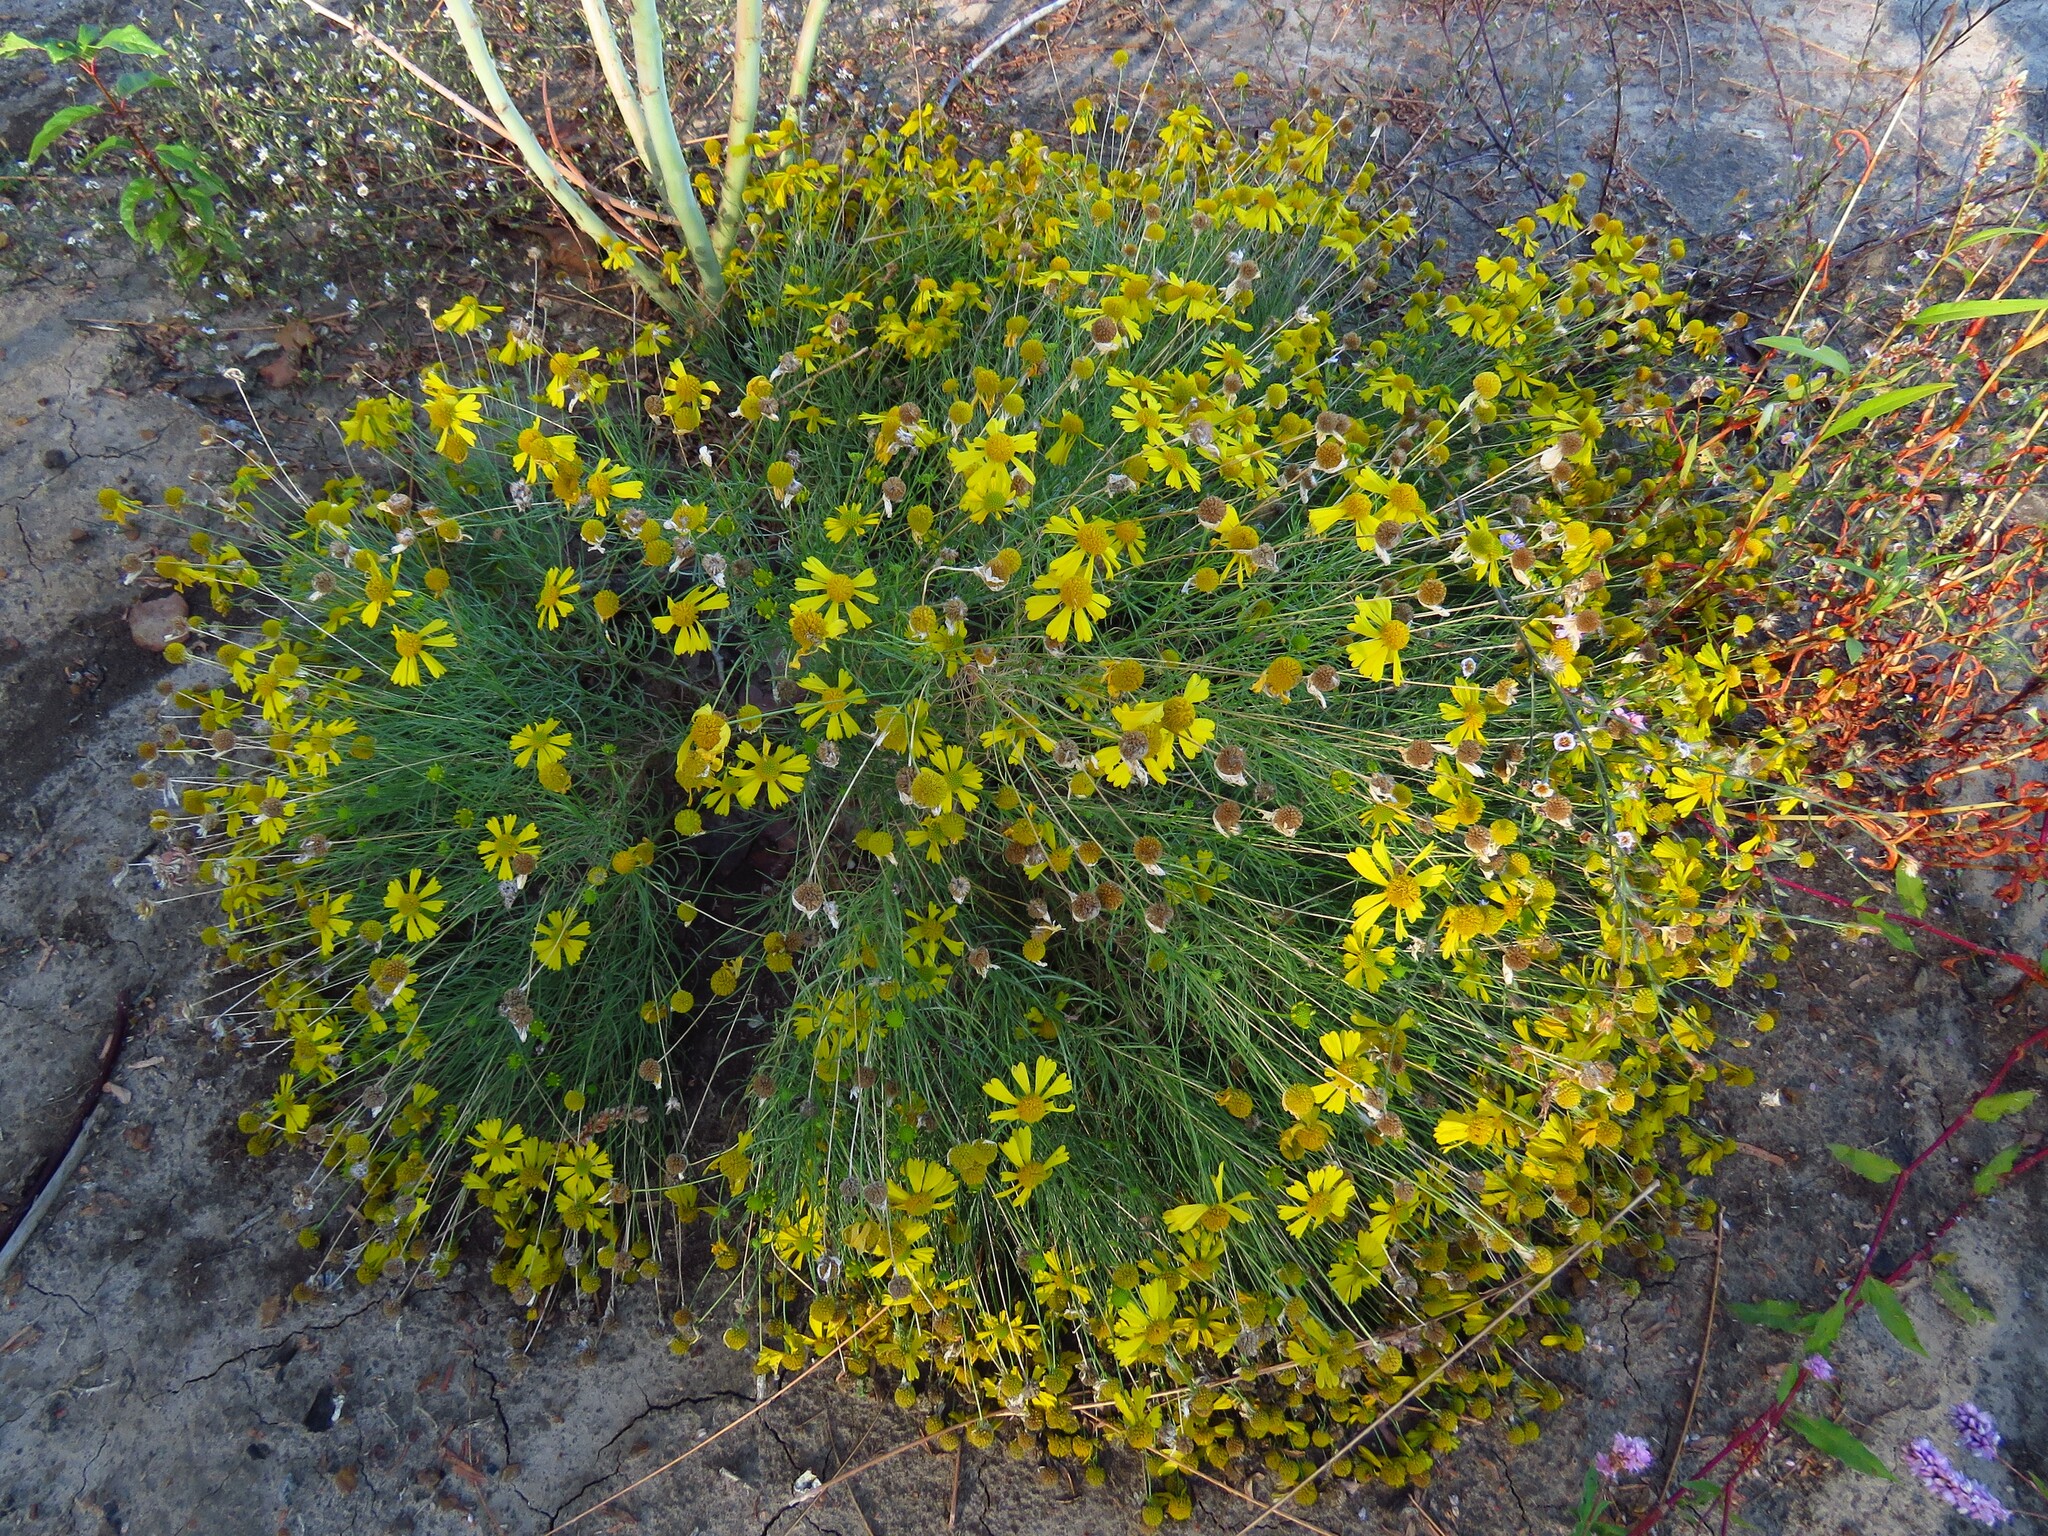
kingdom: Plantae
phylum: Tracheophyta
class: Magnoliopsida
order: Asterales
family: Asteraceae
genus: Helenium
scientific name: Helenium amarum
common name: Bitter sneezeweed
